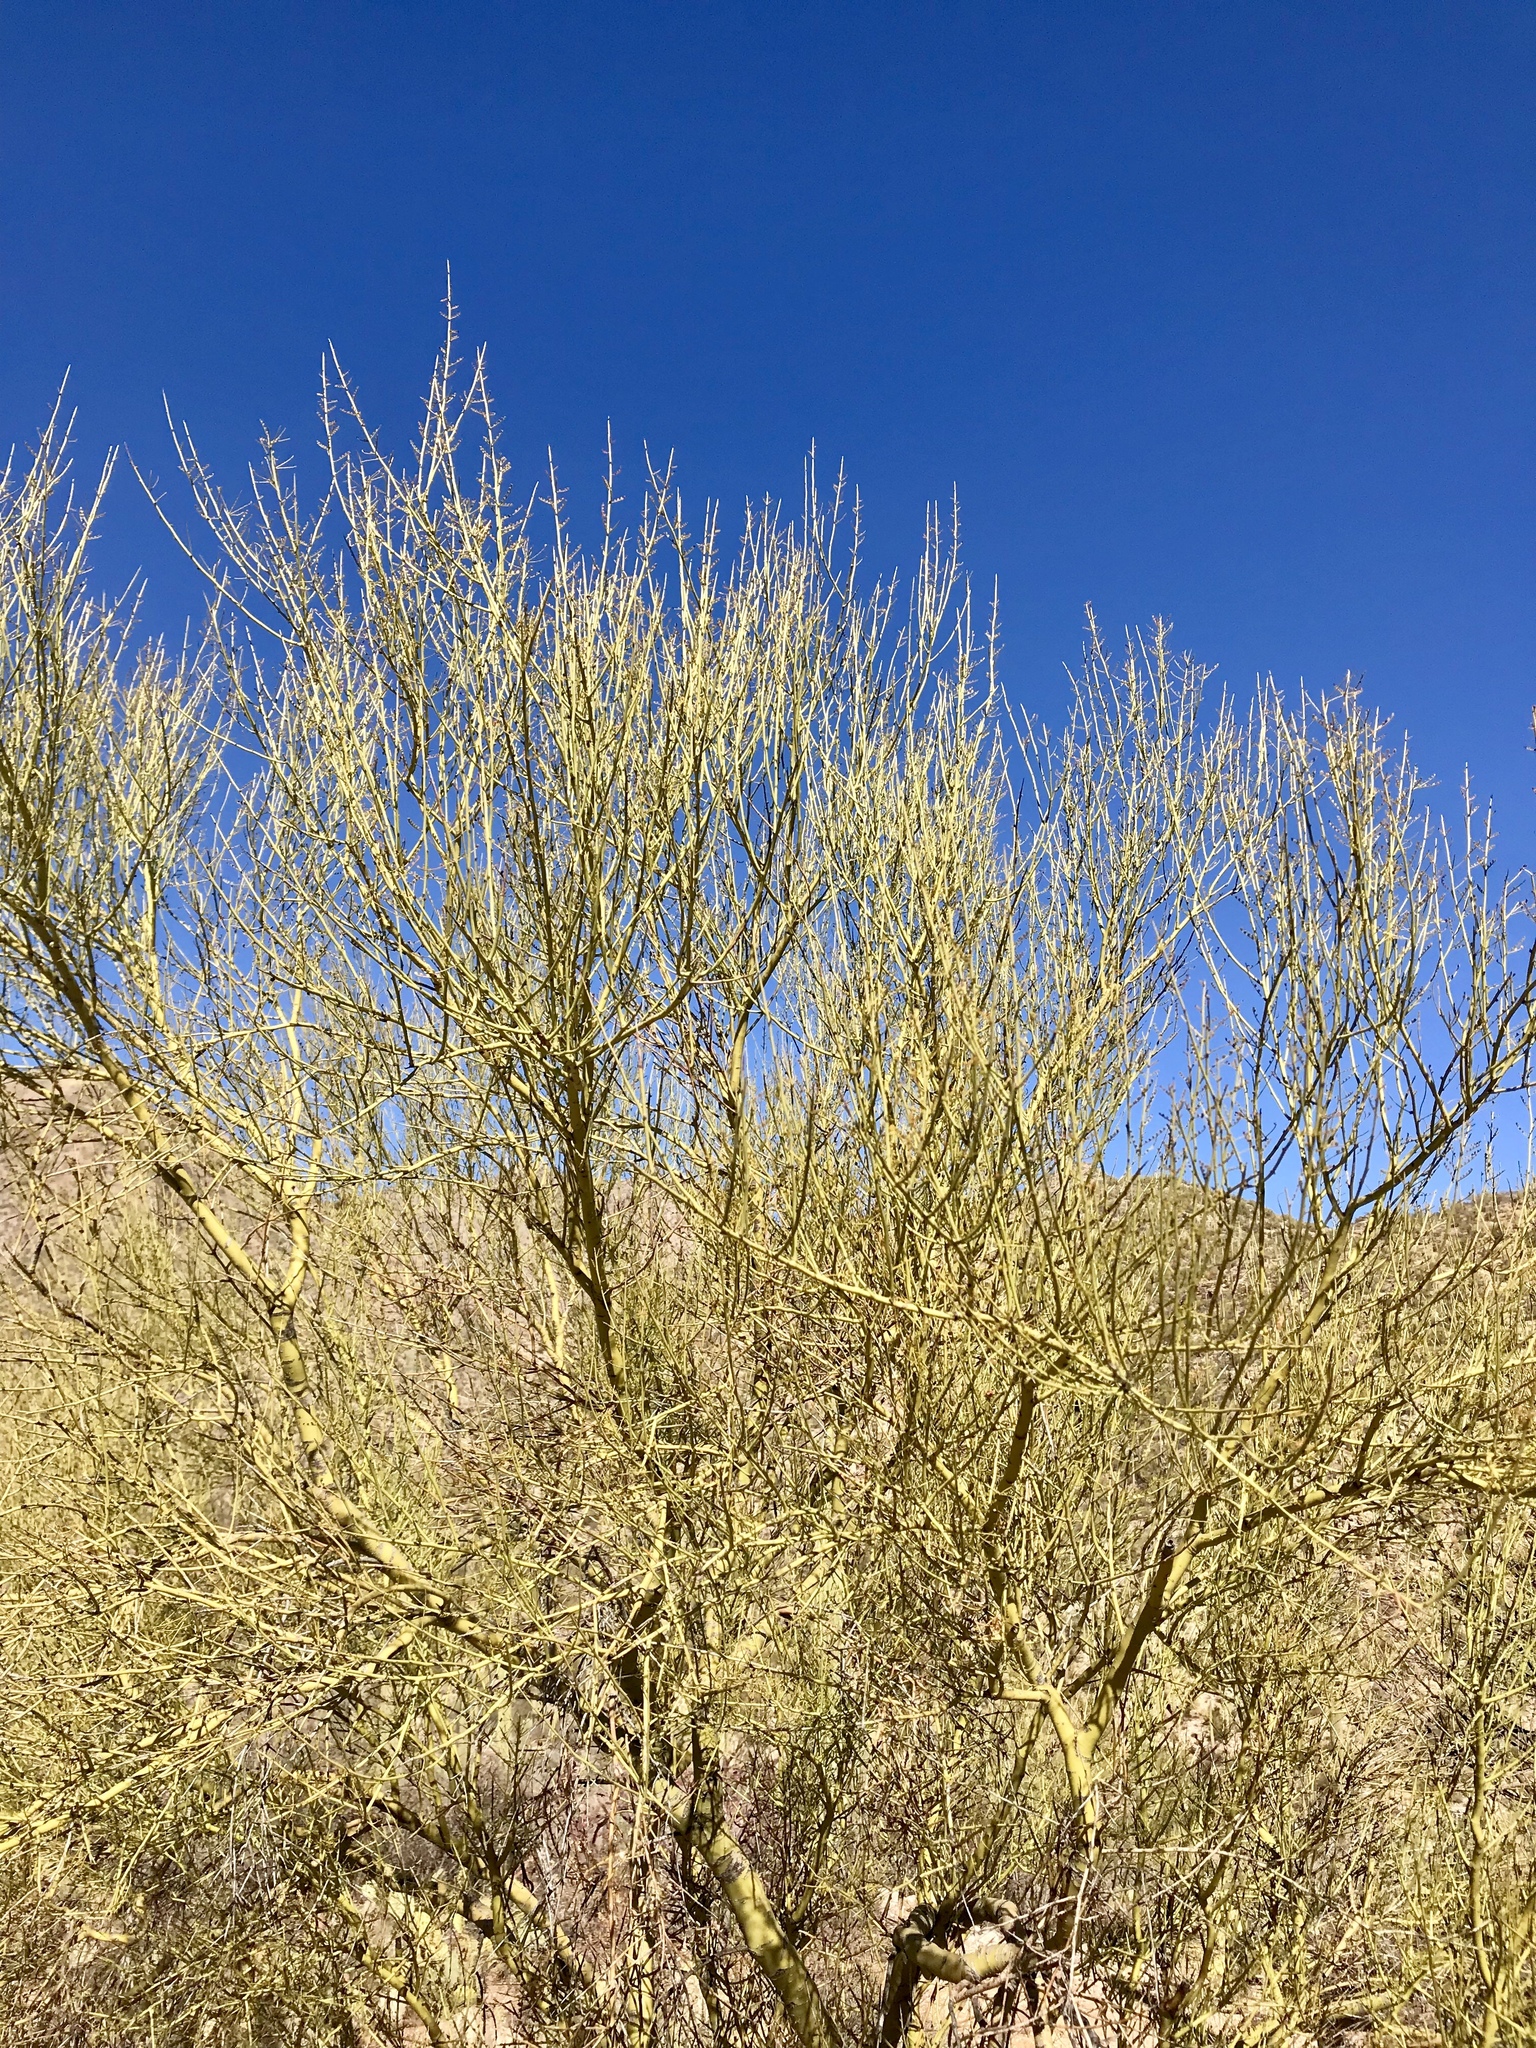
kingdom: Plantae
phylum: Tracheophyta
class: Magnoliopsida
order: Fabales
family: Fabaceae
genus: Parkinsonia
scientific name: Parkinsonia microphylla
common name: Yellow paloverde
